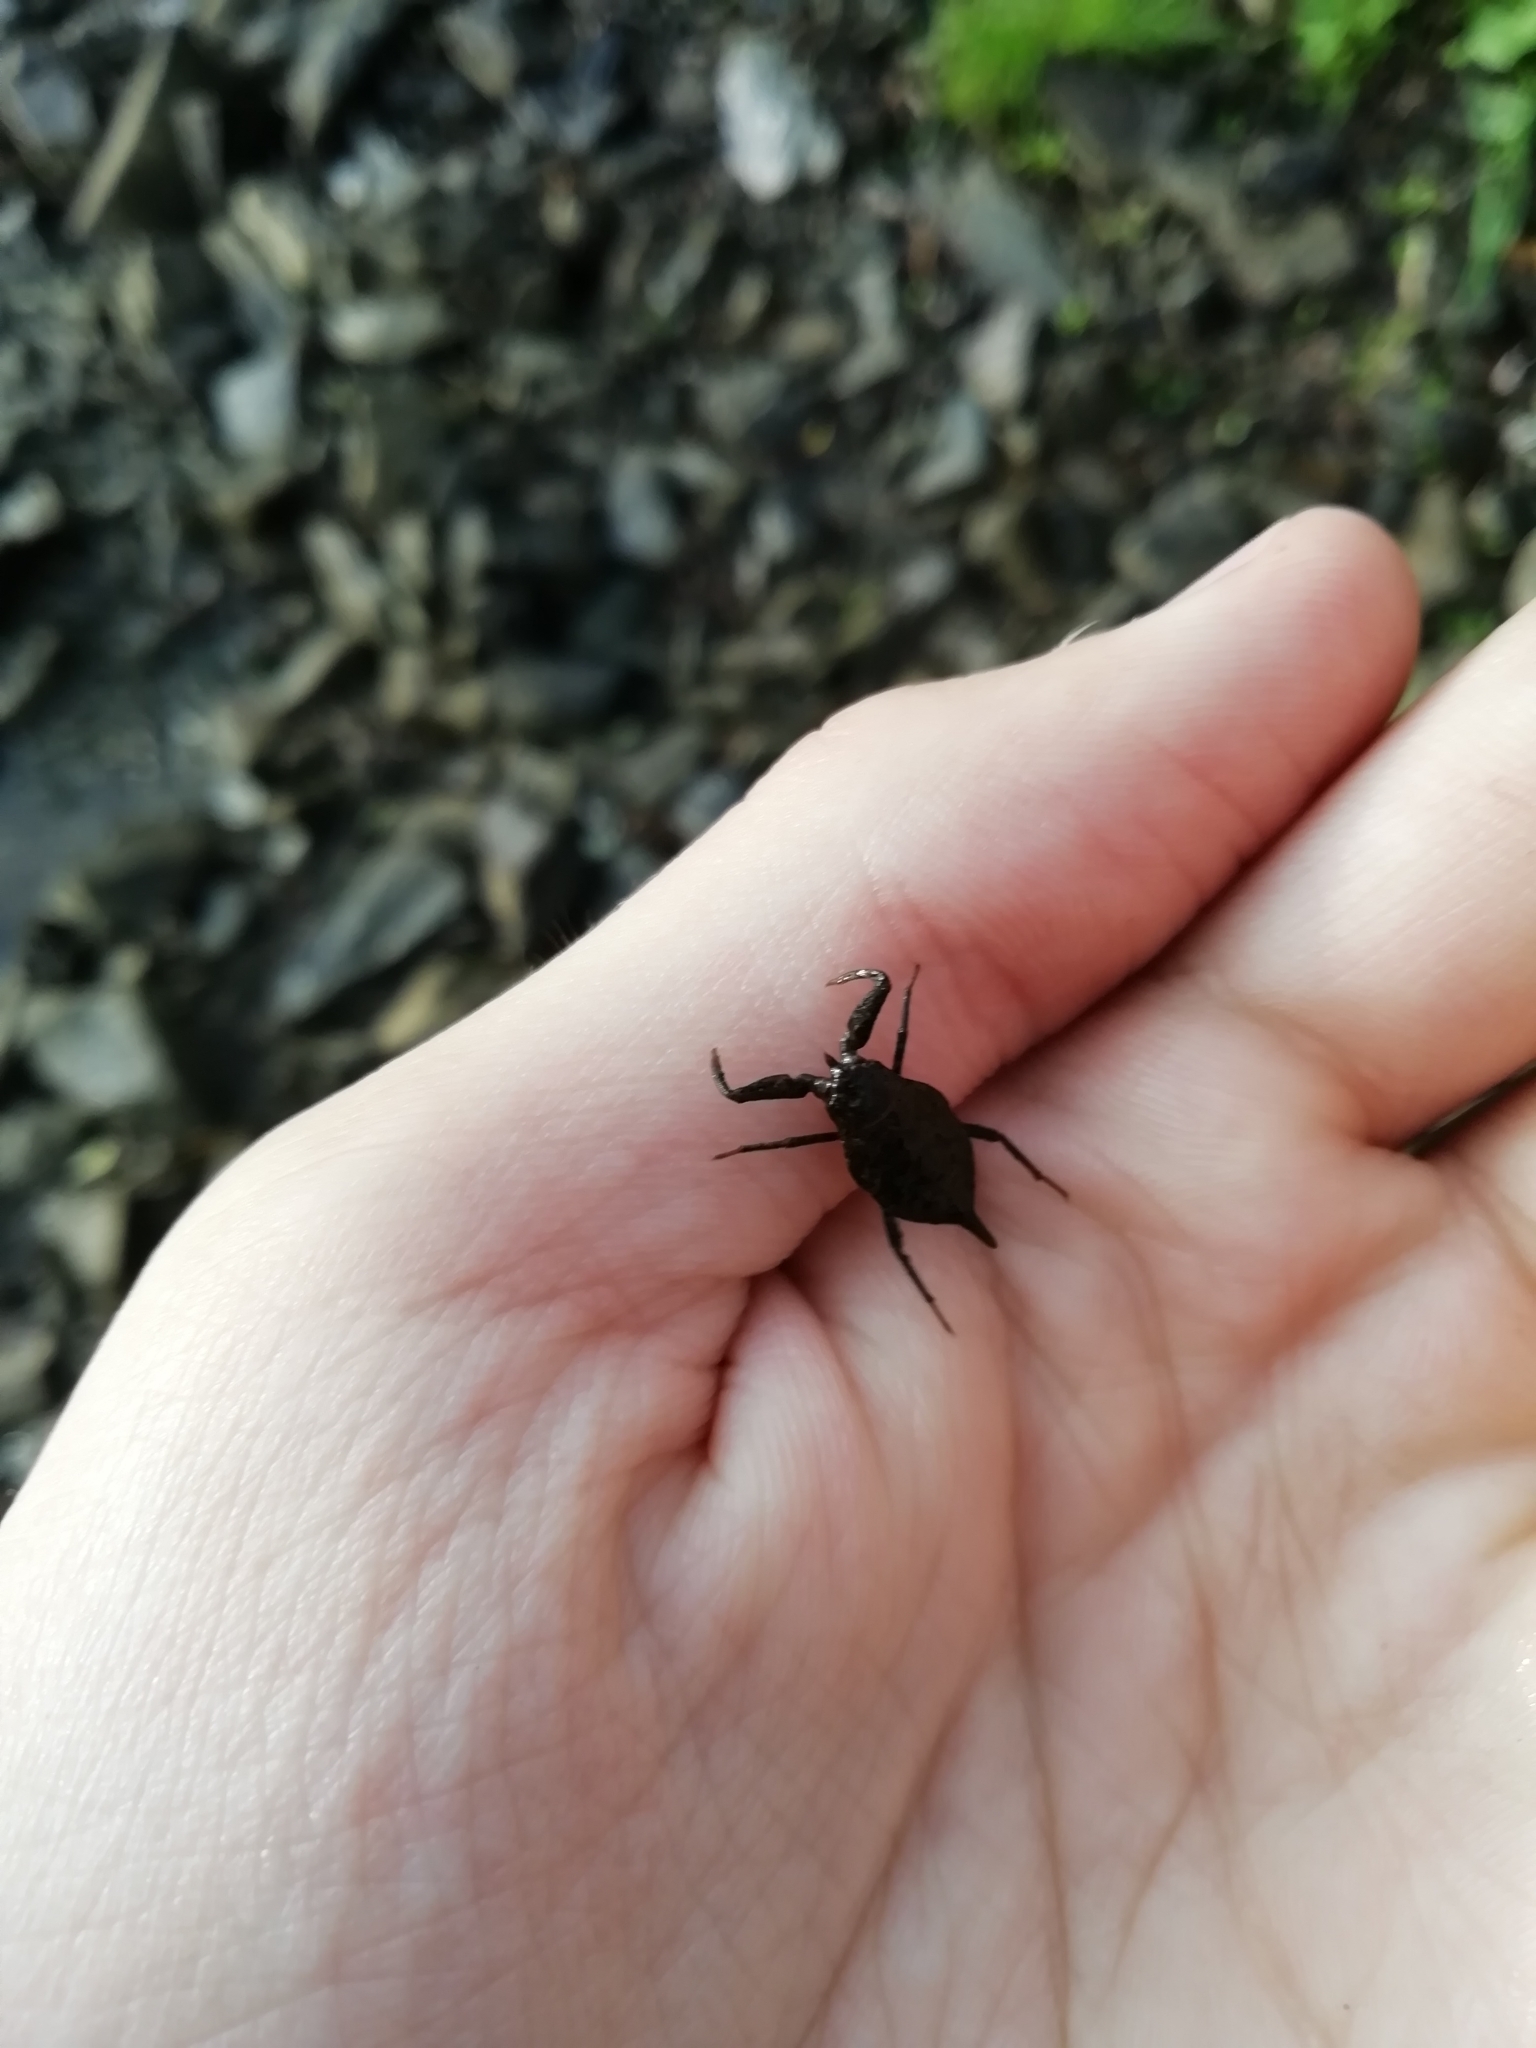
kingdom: Animalia
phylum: Arthropoda
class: Insecta
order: Hemiptera
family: Nepidae
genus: Nepa
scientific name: Nepa cinerea
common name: Water scorpion
